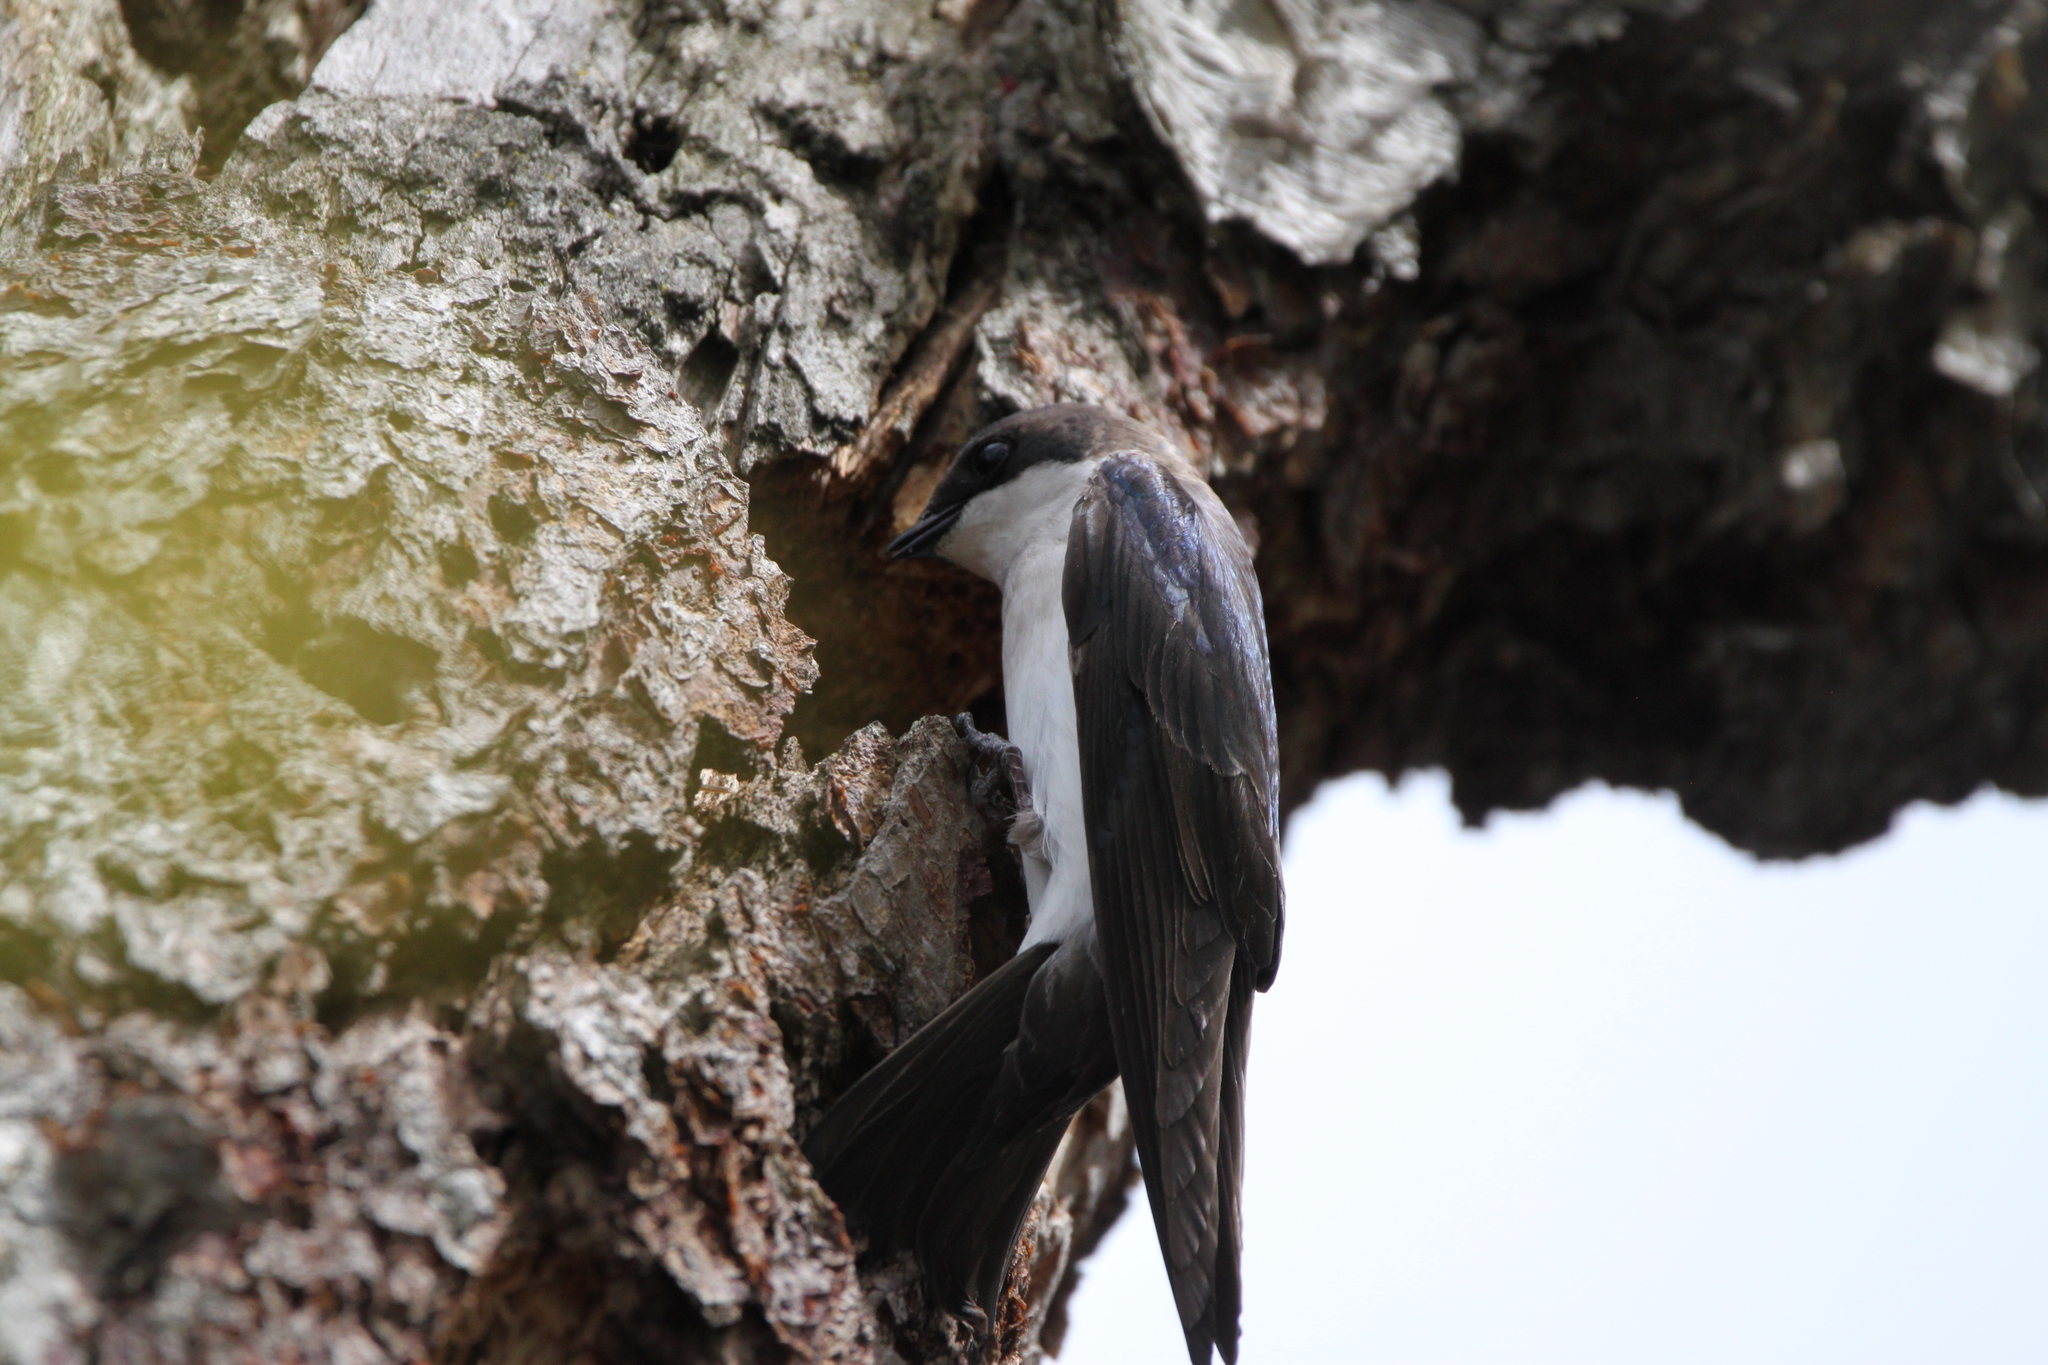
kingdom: Animalia
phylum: Chordata
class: Aves
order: Passeriformes
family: Hirundinidae
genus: Tachycineta
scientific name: Tachycineta bicolor
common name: Tree swallow
